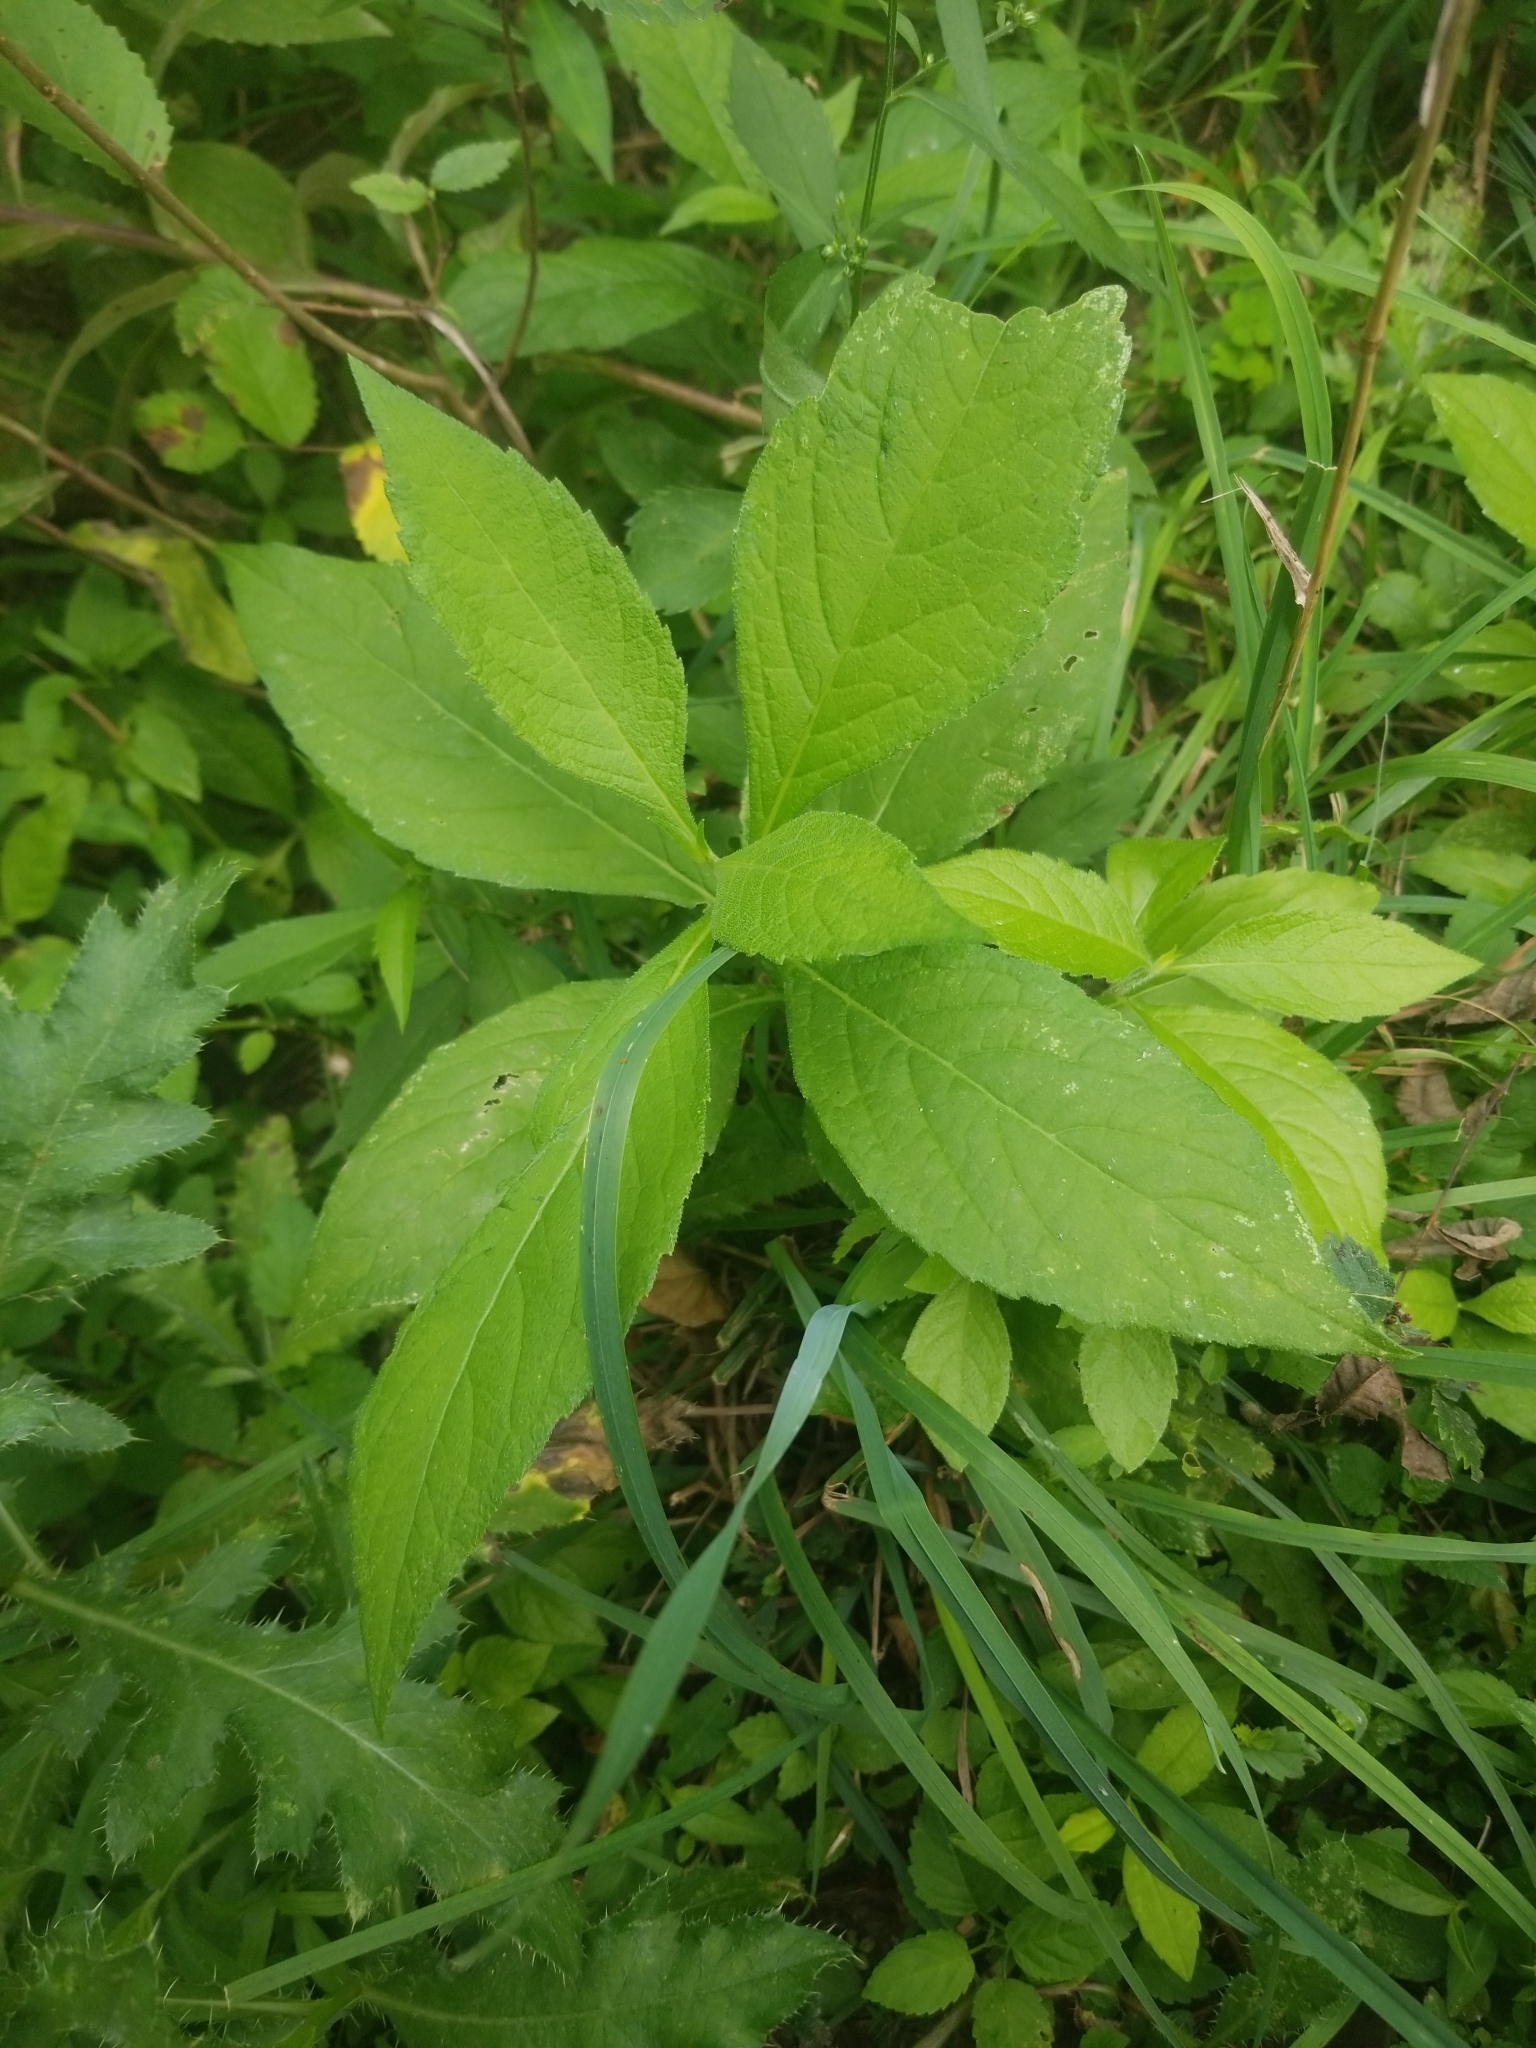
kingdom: Plantae
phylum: Tracheophyta
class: Magnoliopsida
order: Asterales
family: Asteraceae
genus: Verbesina
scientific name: Verbesina alternifolia
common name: Wingstem
